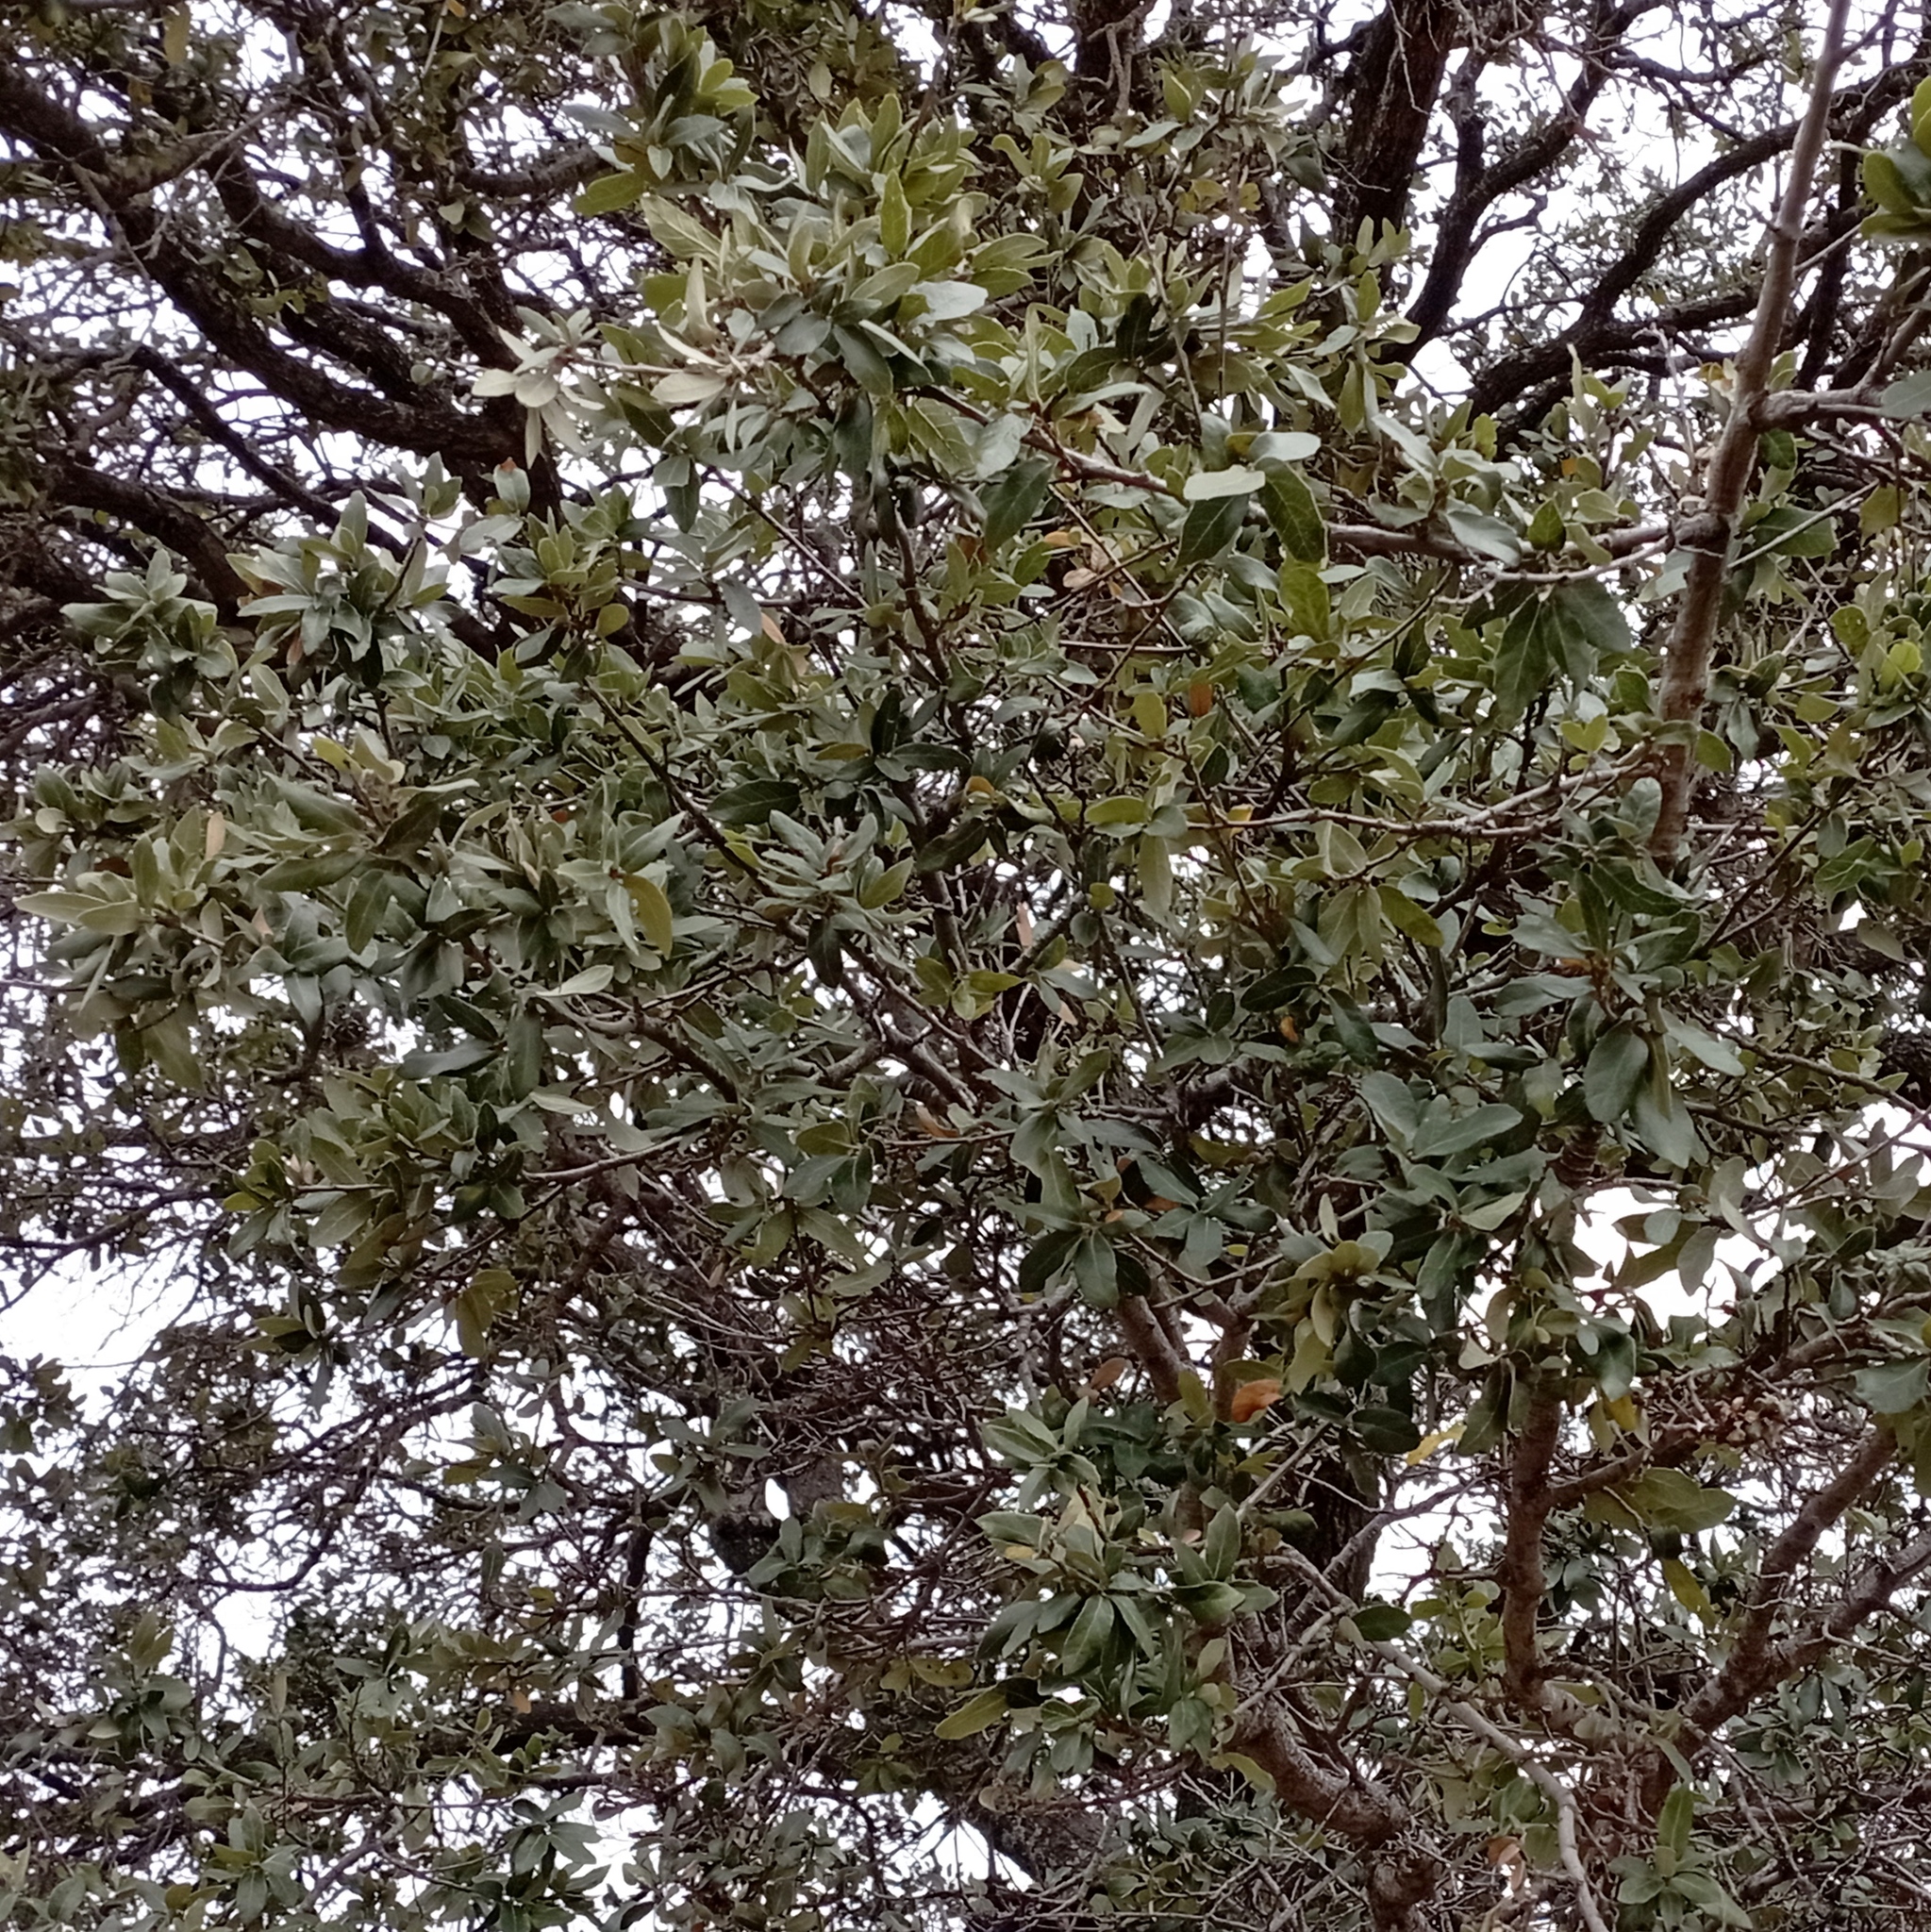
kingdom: Plantae
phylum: Tracheophyta
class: Magnoliopsida
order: Fagales
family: Fagaceae
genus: Quercus
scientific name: Quercus
